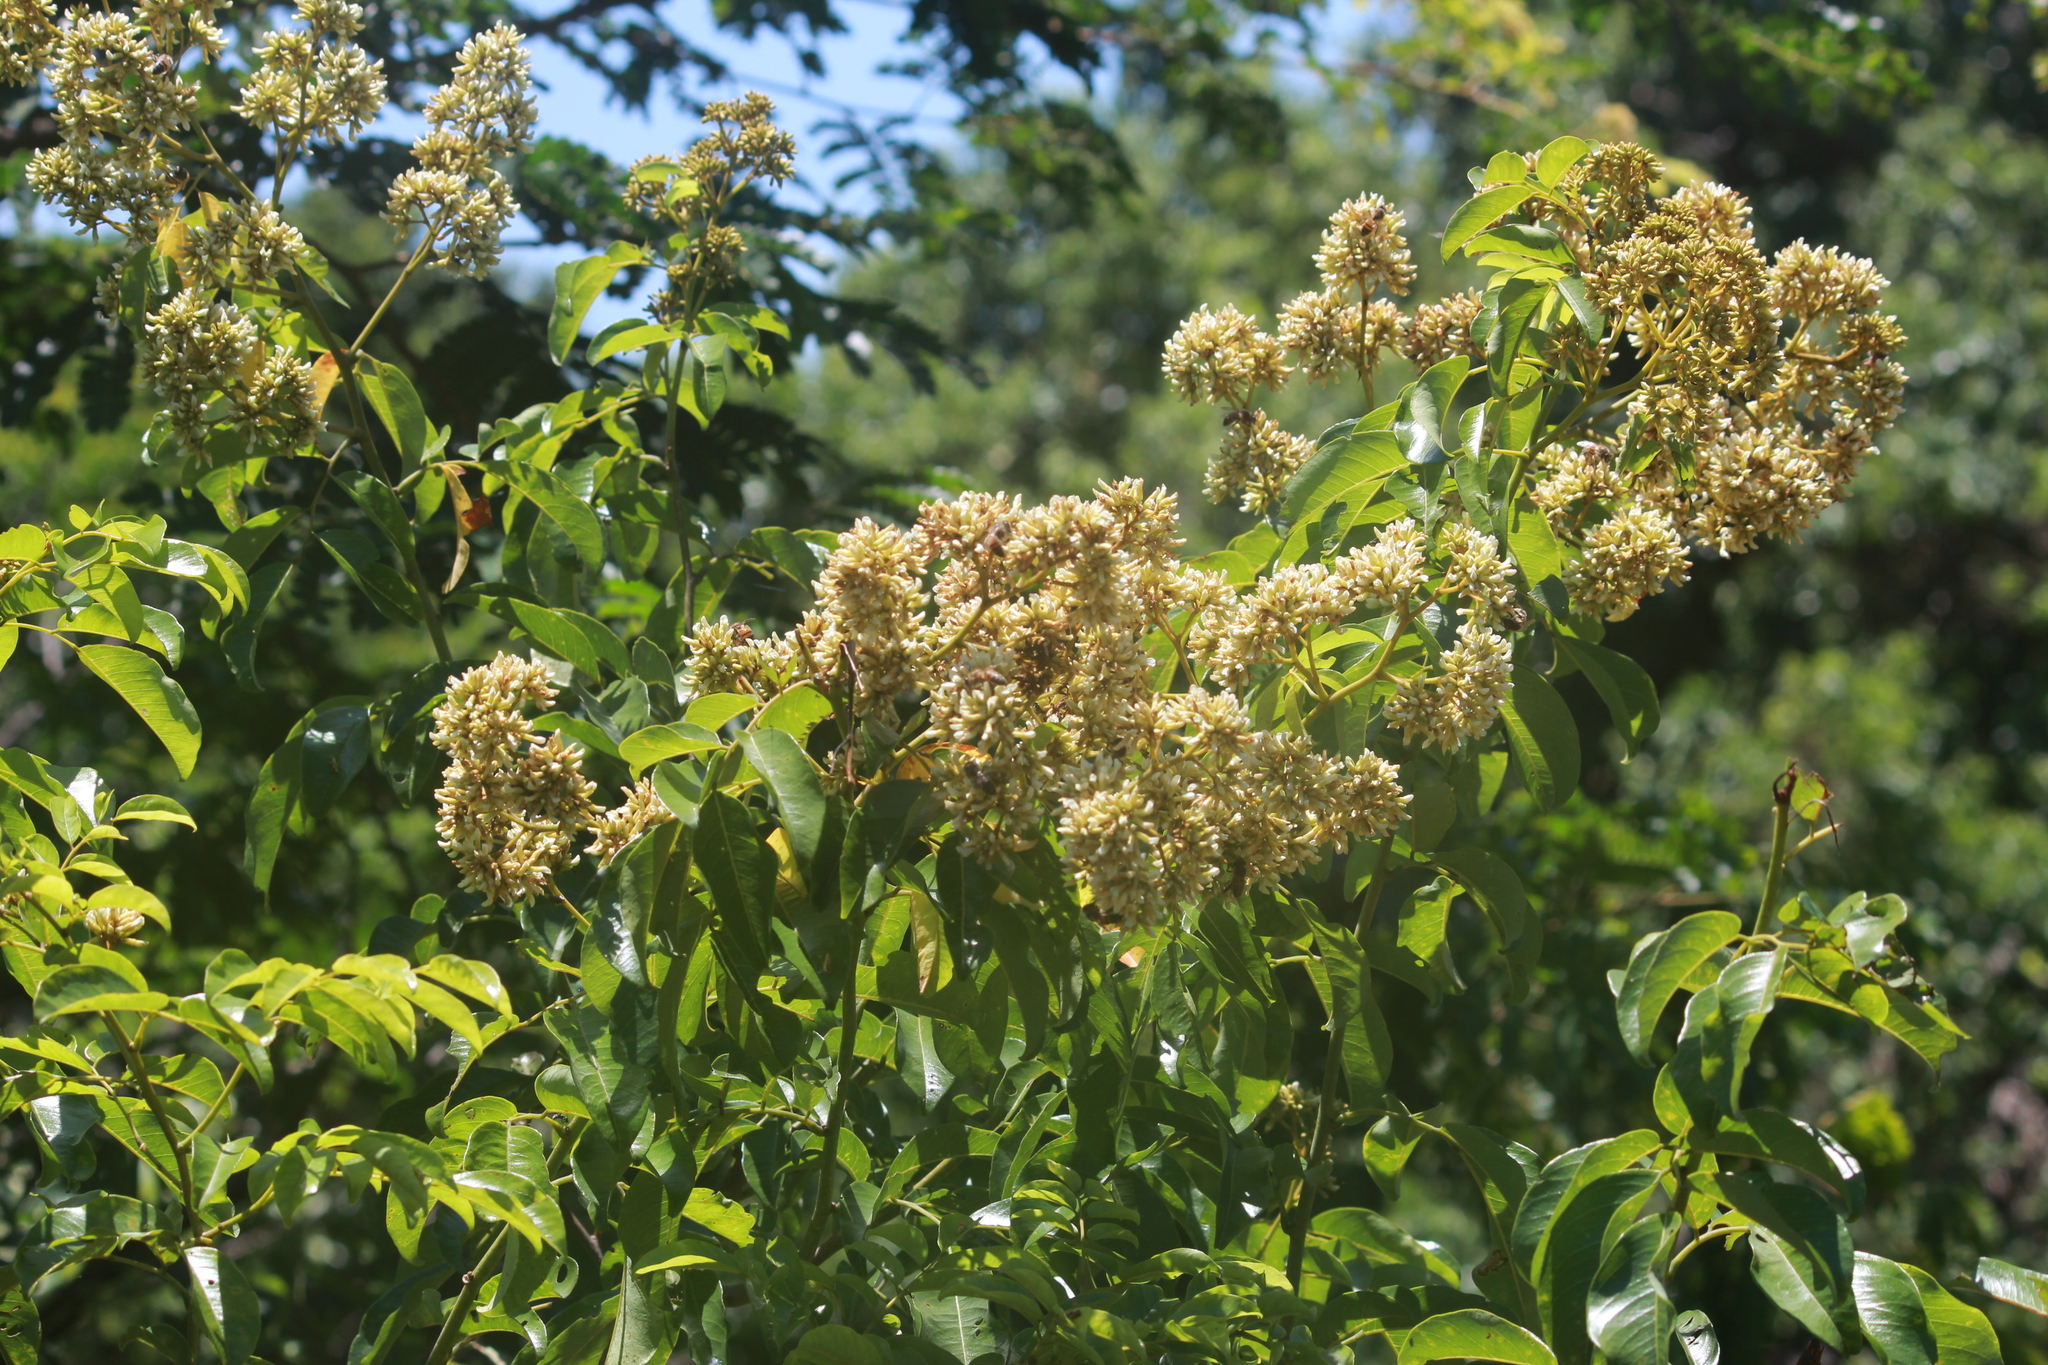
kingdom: Plantae
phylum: Tracheophyta
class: Magnoliopsida
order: Fabales
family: Fabaceae
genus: Dalbergia
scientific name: Dalbergia obovata
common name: Climbing flat-bean
